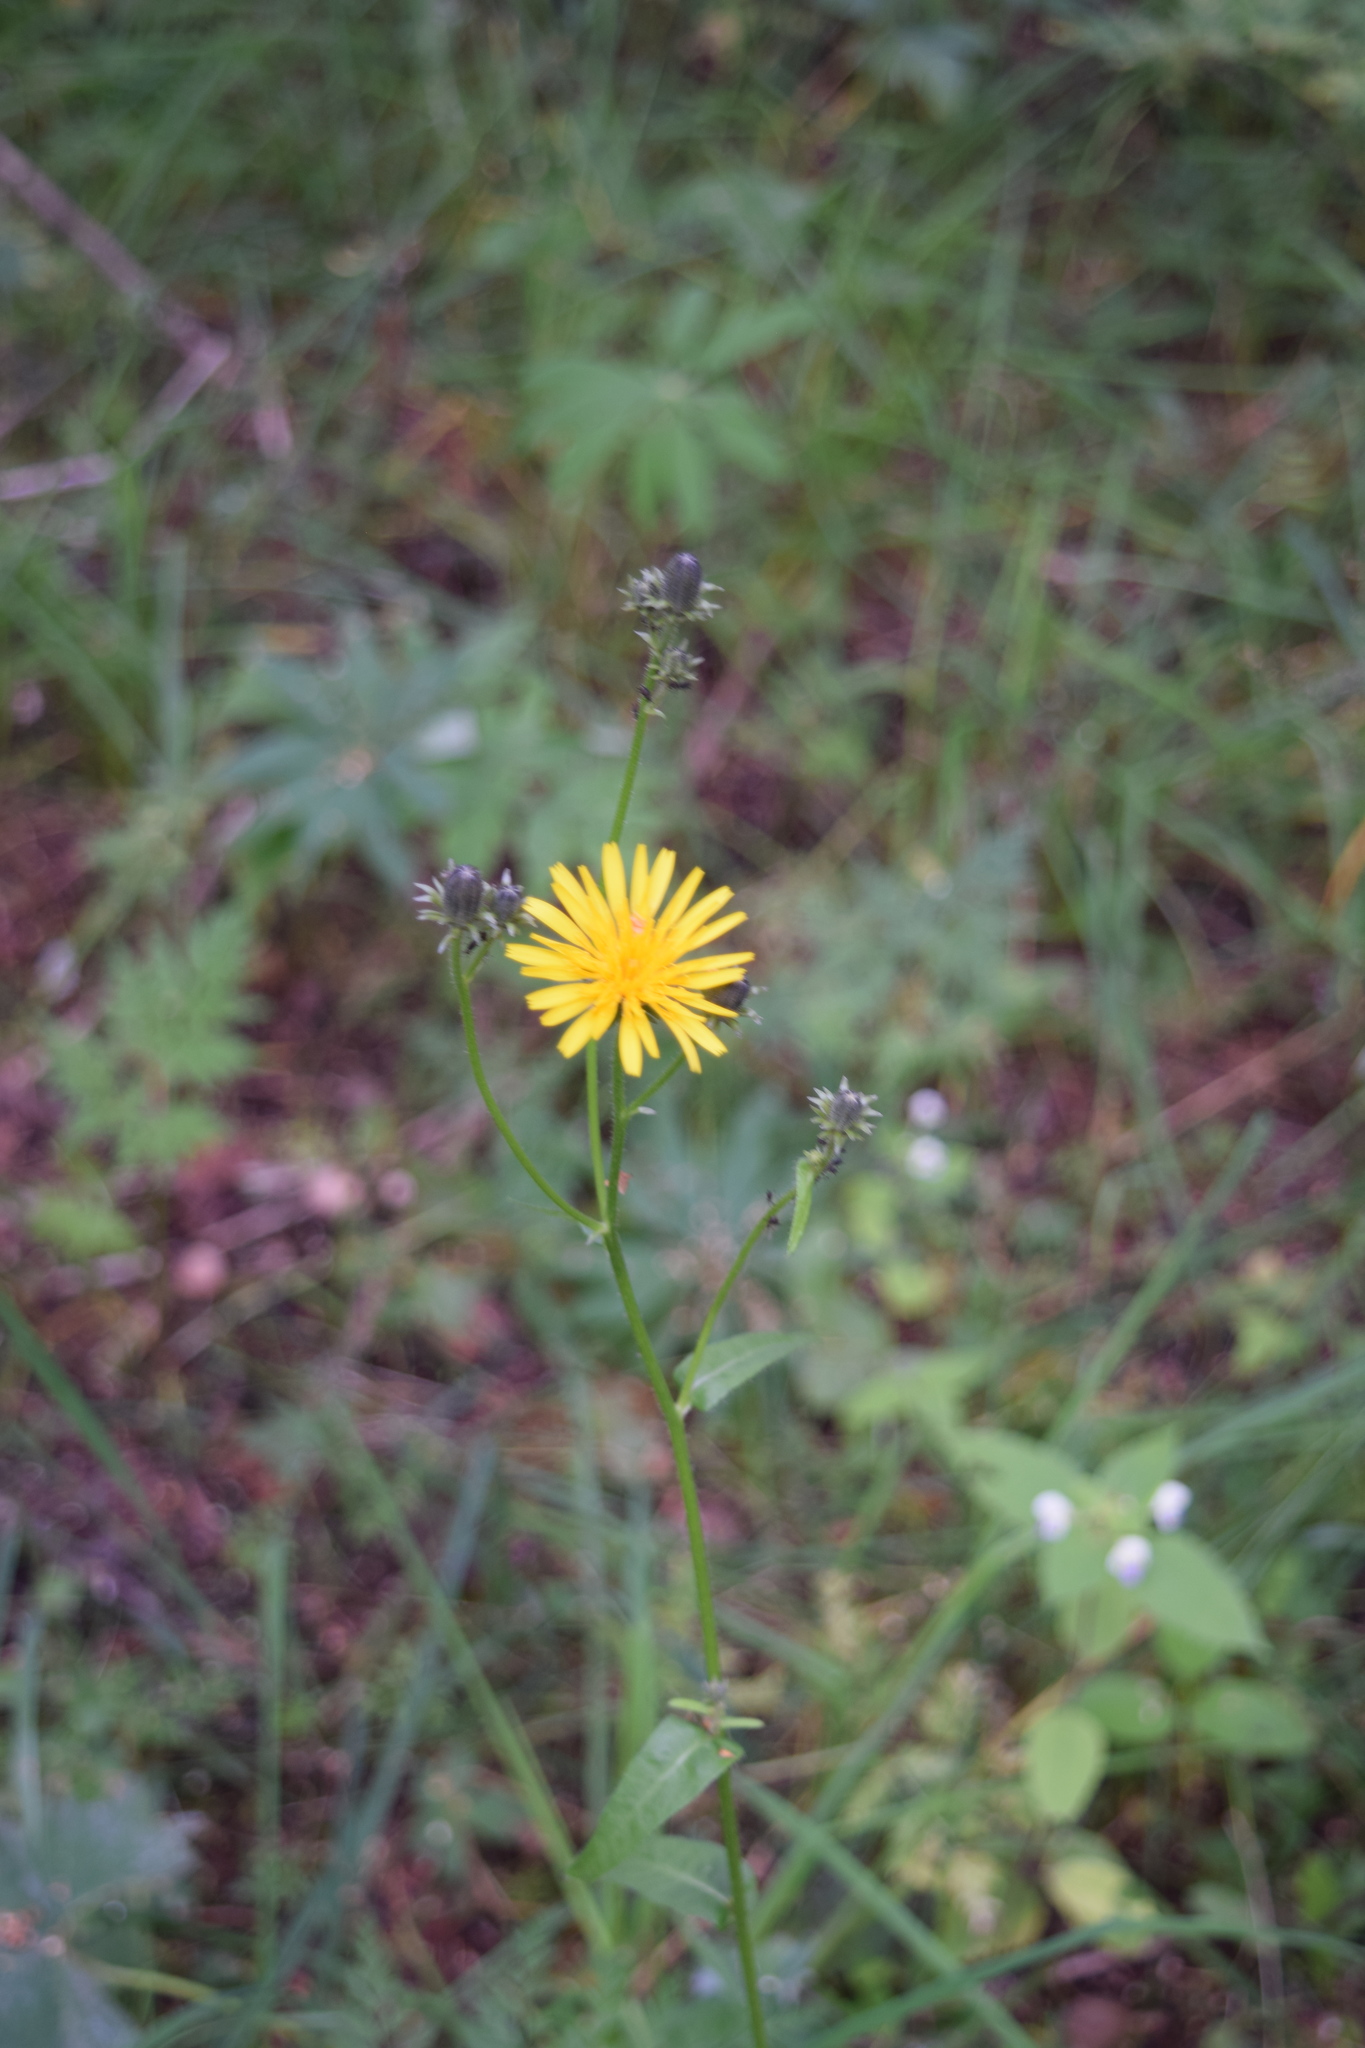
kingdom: Plantae
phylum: Tracheophyta
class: Magnoliopsida
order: Asterales
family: Asteraceae
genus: Picris
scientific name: Picris hieracioides
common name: Hawkweed oxtongue
